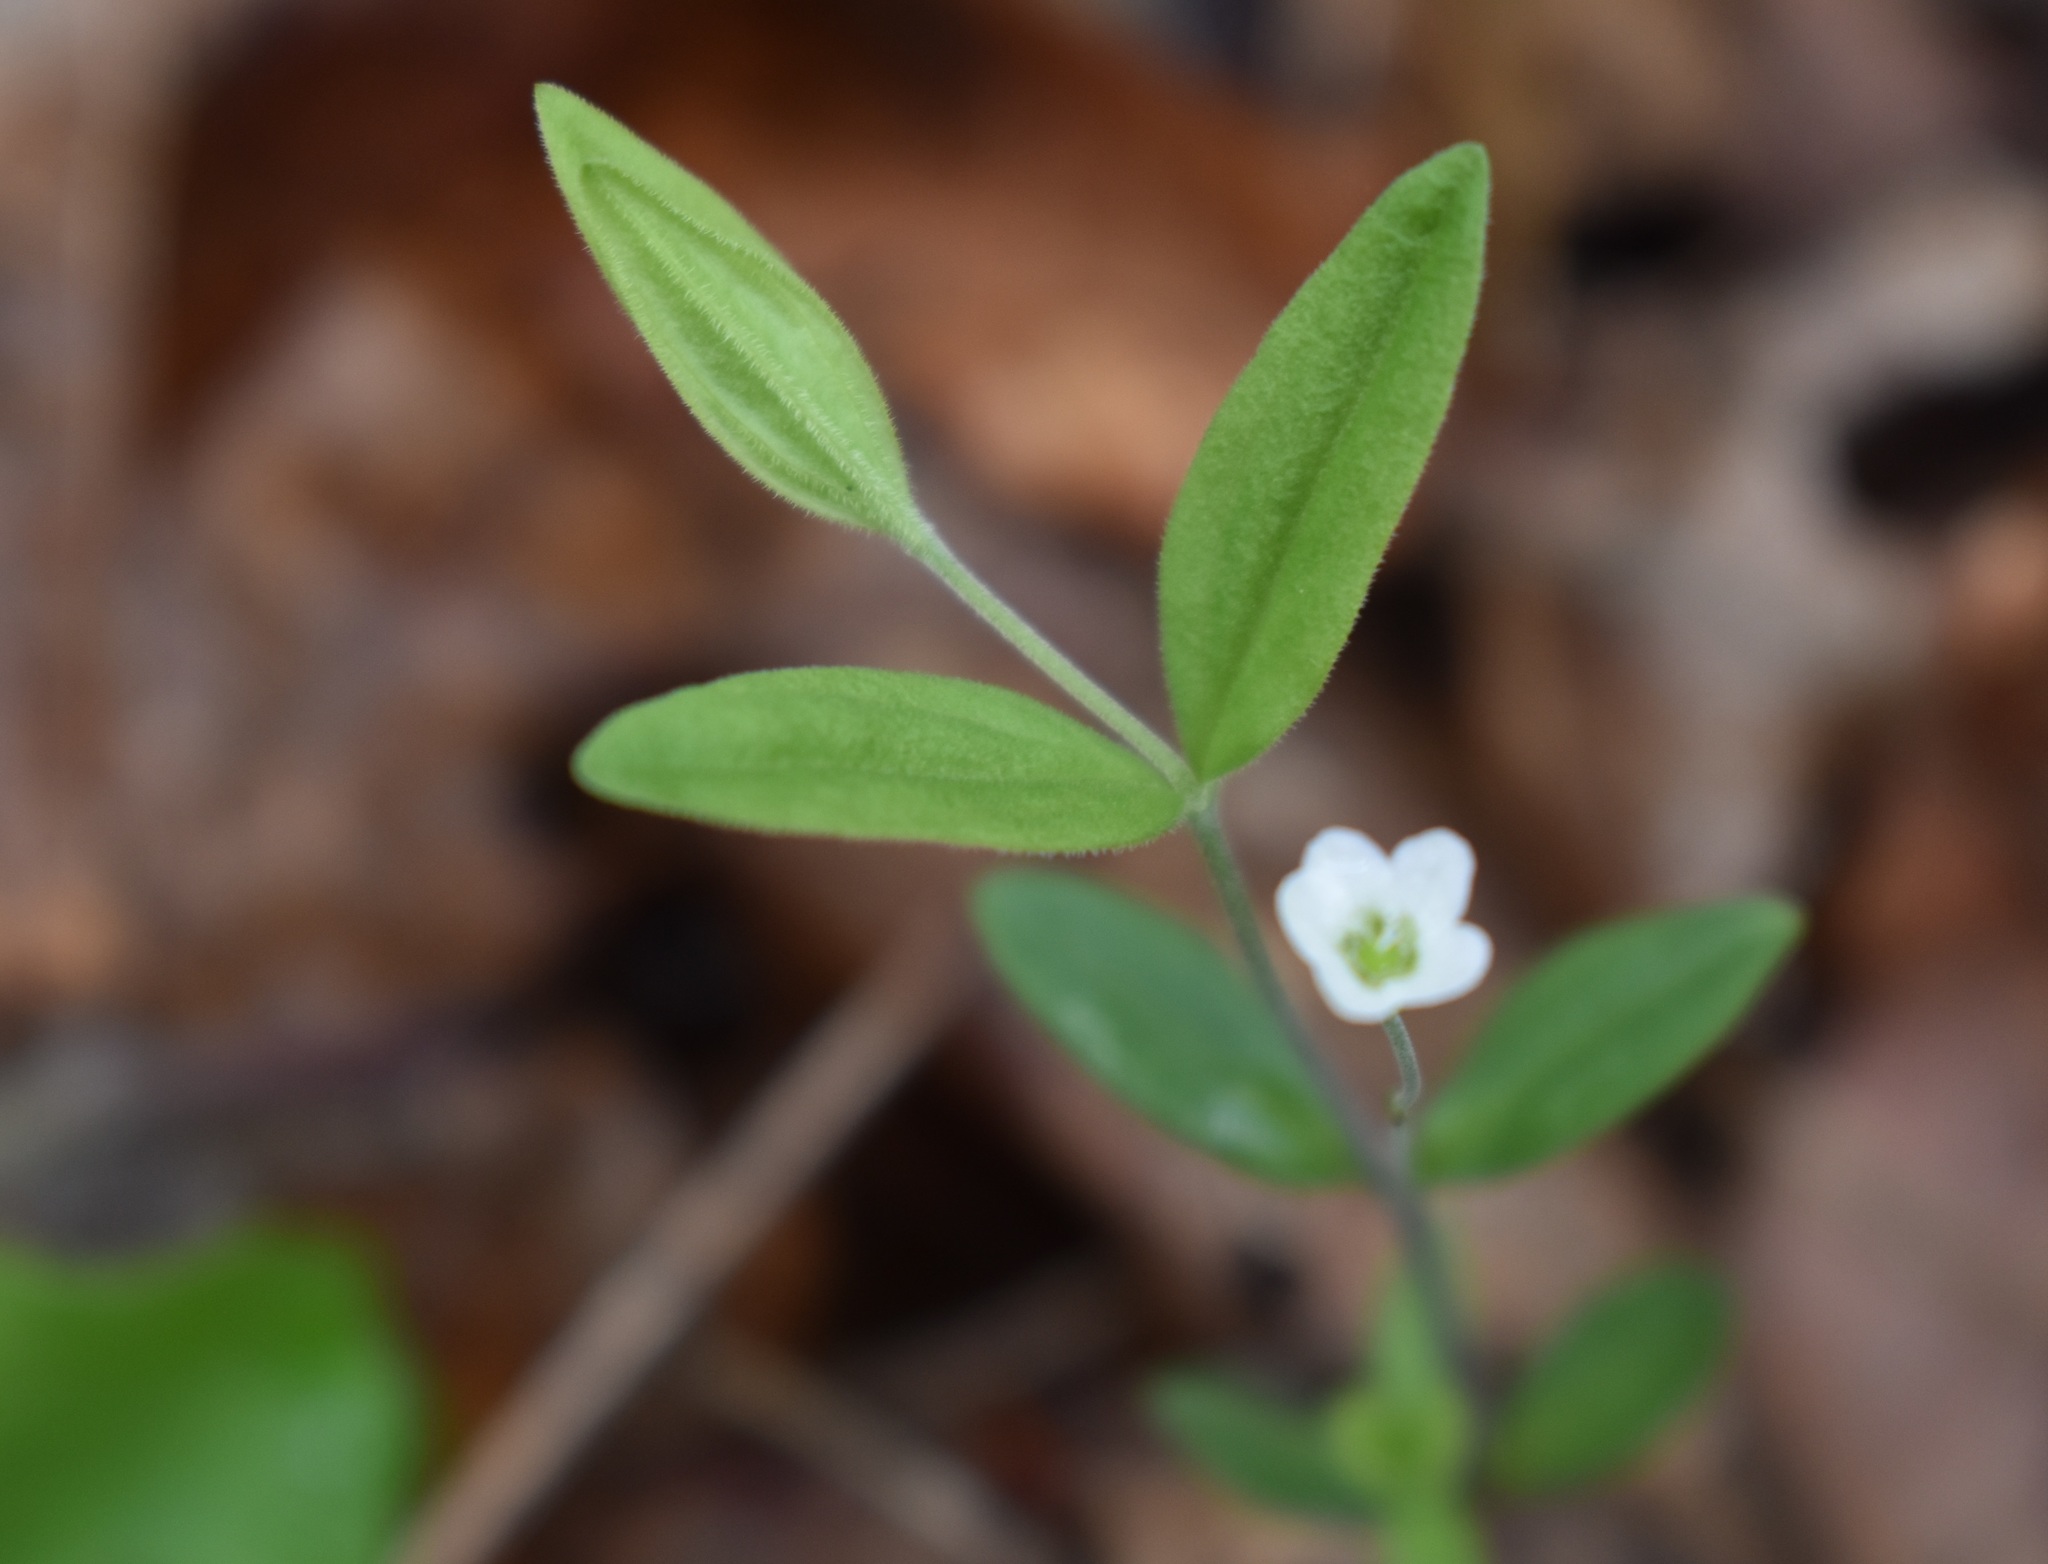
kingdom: Plantae
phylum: Tracheophyta
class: Magnoliopsida
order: Caryophyllales
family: Caryophyllaceae
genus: Moehringia
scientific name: Moehringia lateriflora
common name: Blunt-leaved sandwort
